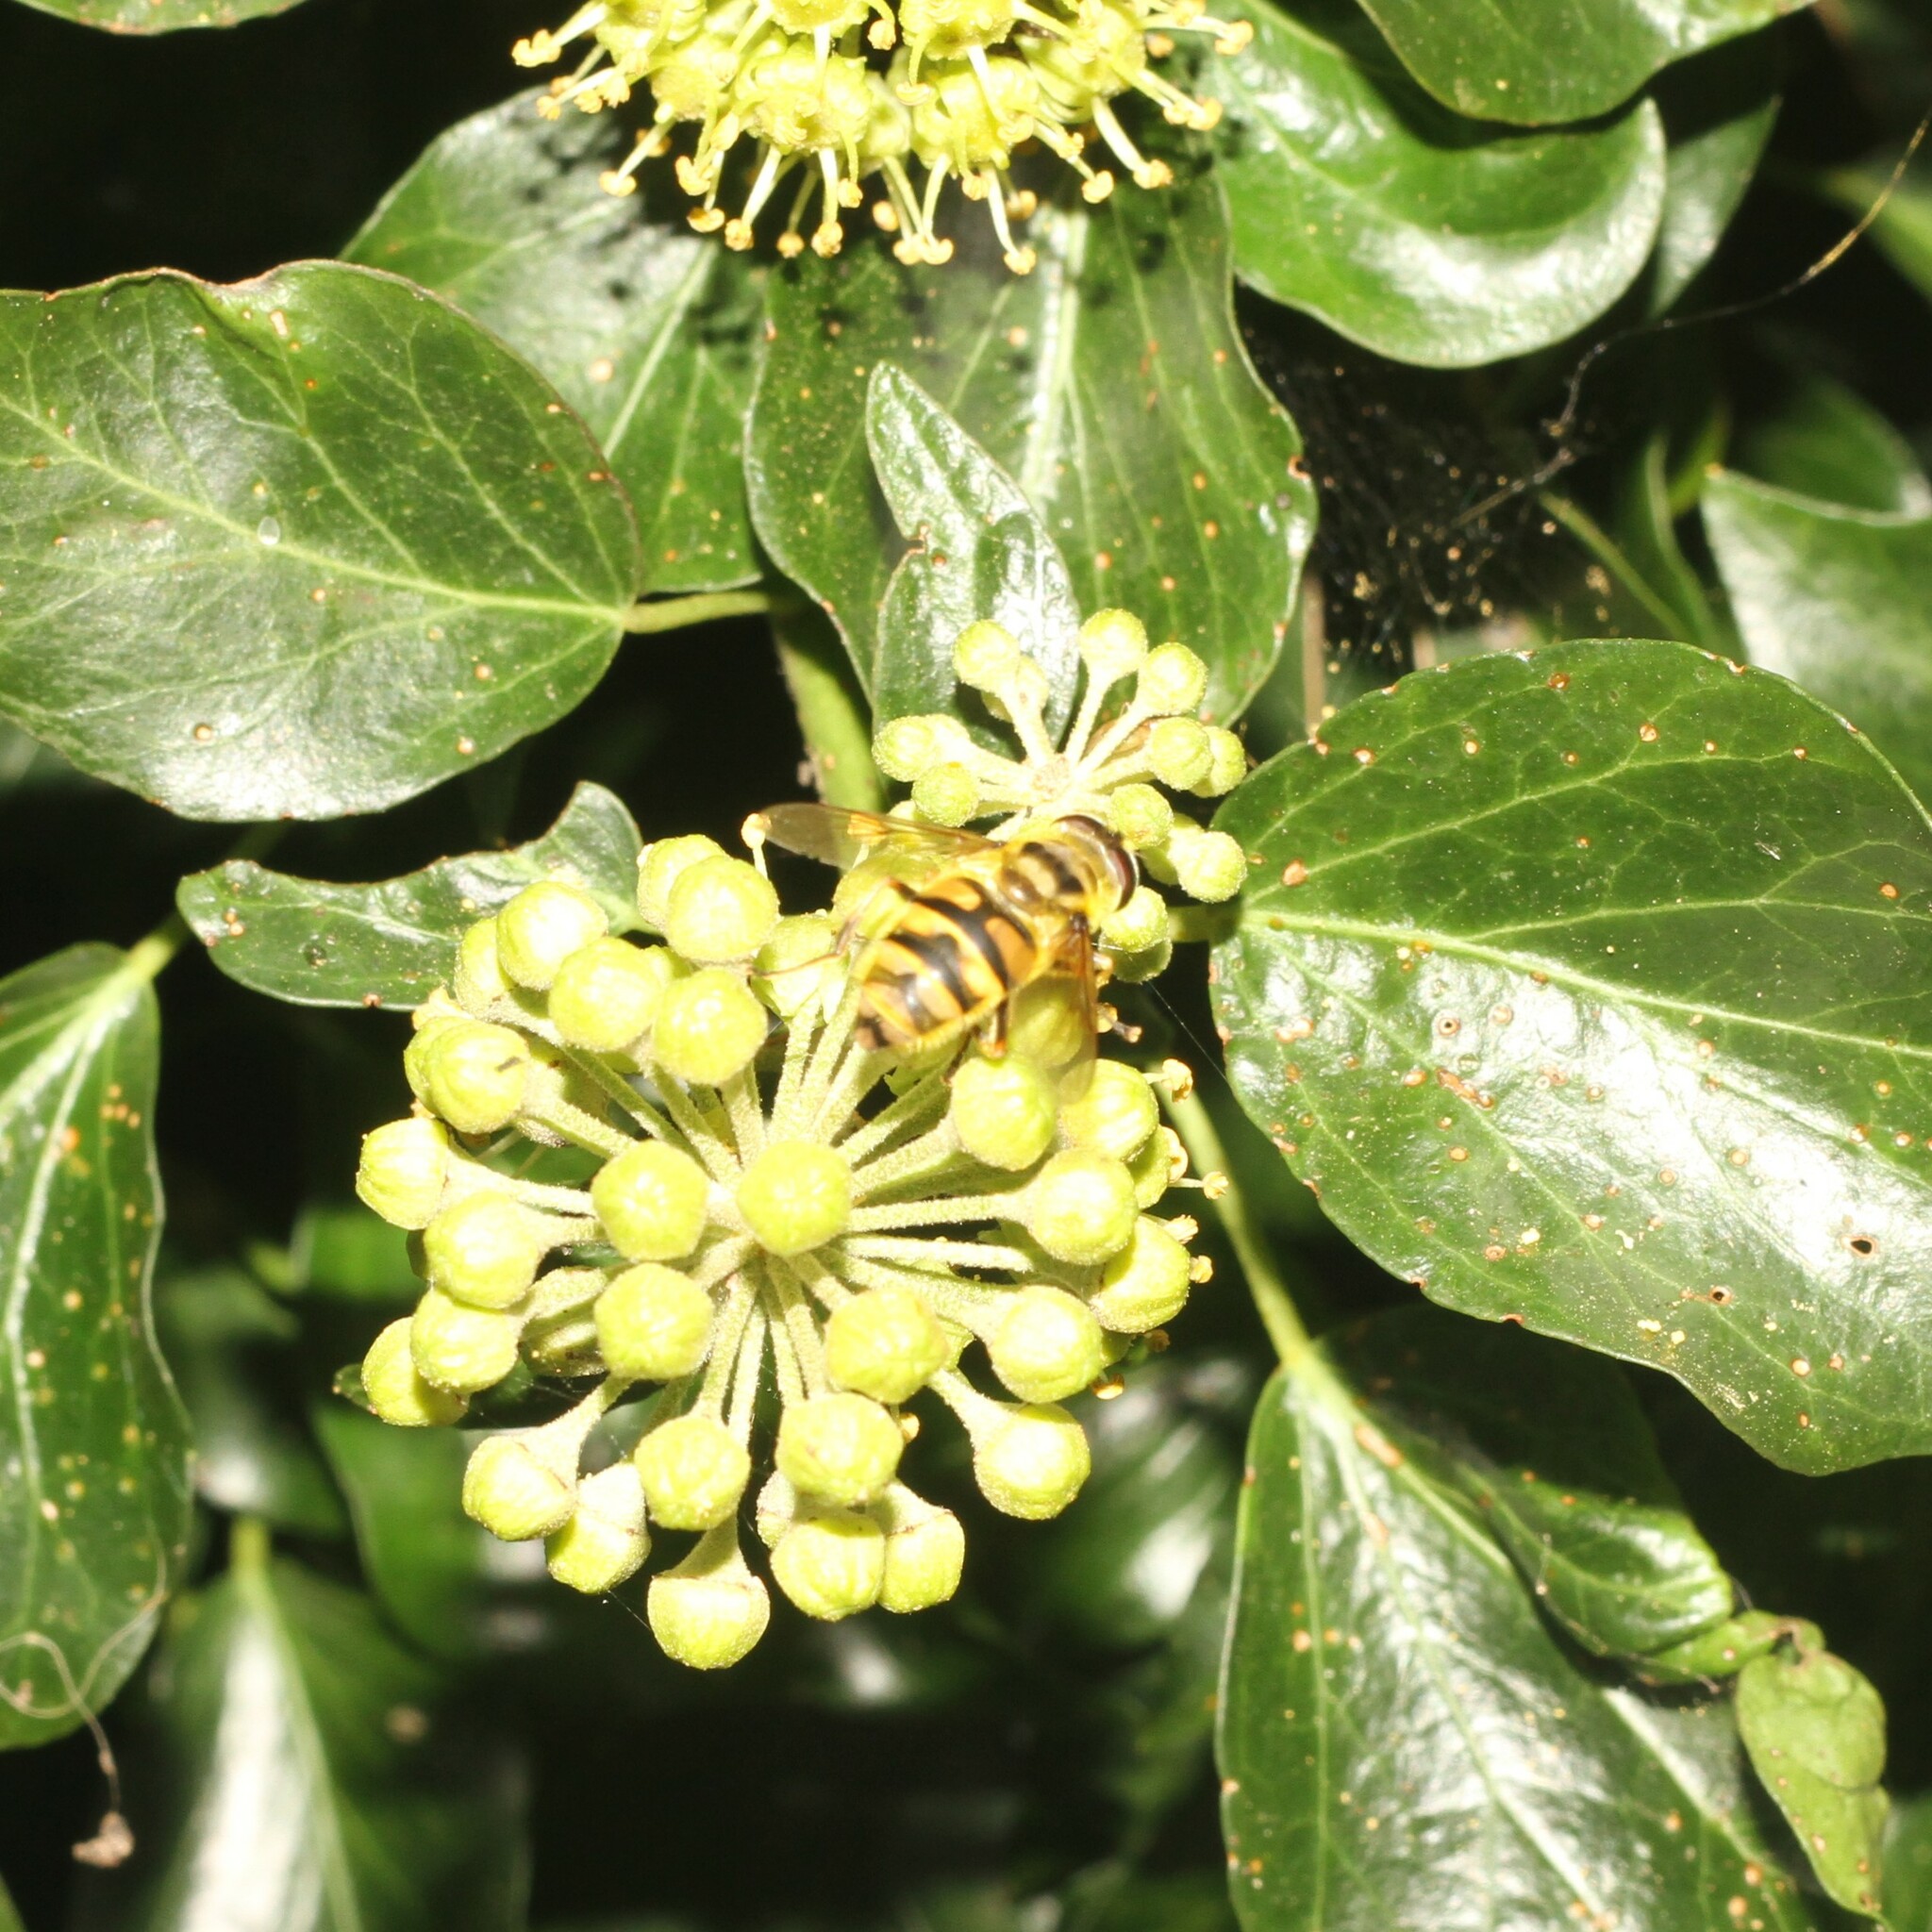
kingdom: Animalia
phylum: Arthropoda
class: Insecta
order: Diptera
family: Syrphidae
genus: Myathropa
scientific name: Myathropa florea
